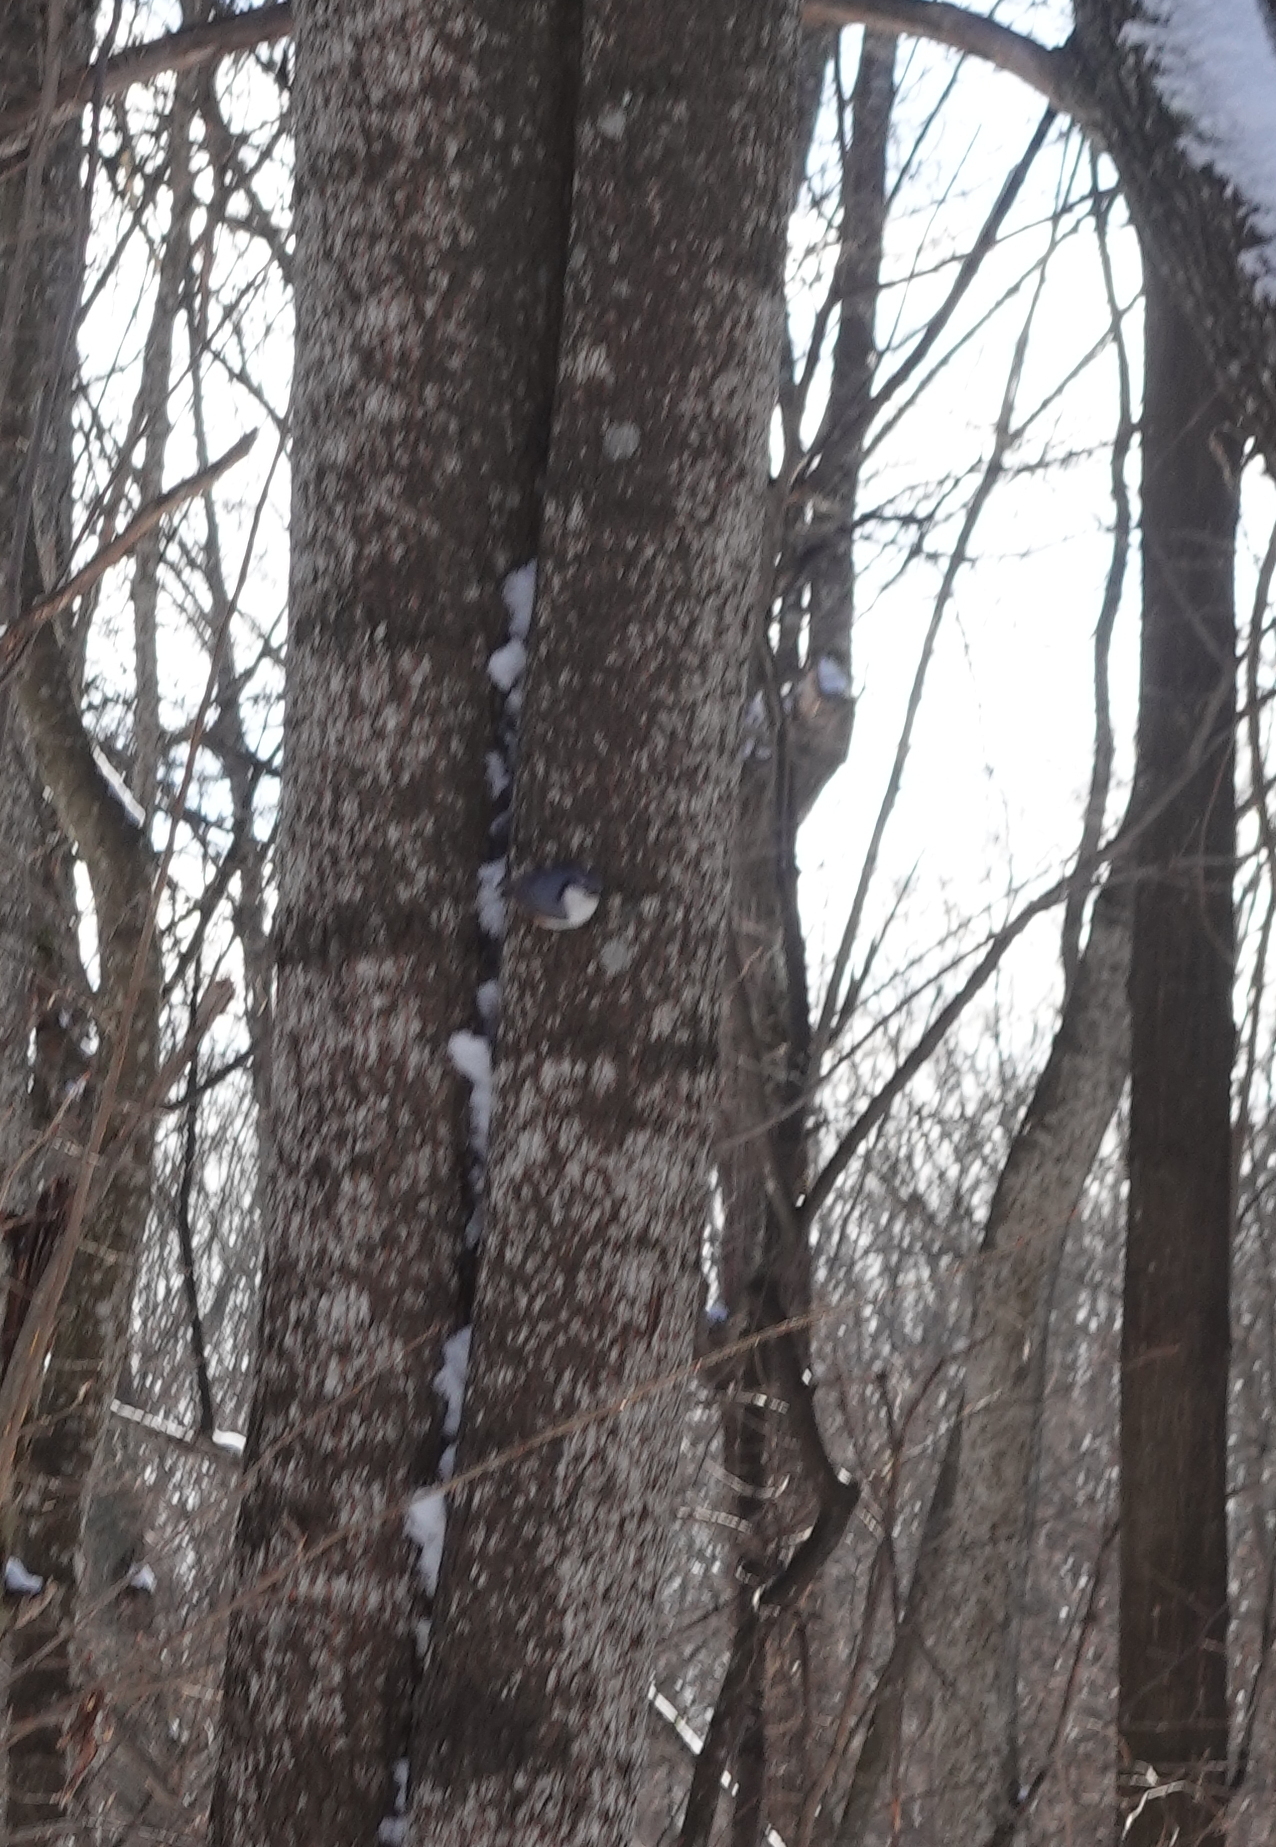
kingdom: Animalia
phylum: Chordata
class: Aves
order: Passeriformes
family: Sittidae
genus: Sitta
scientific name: Sitta europaea
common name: Eurasian nuthatch
